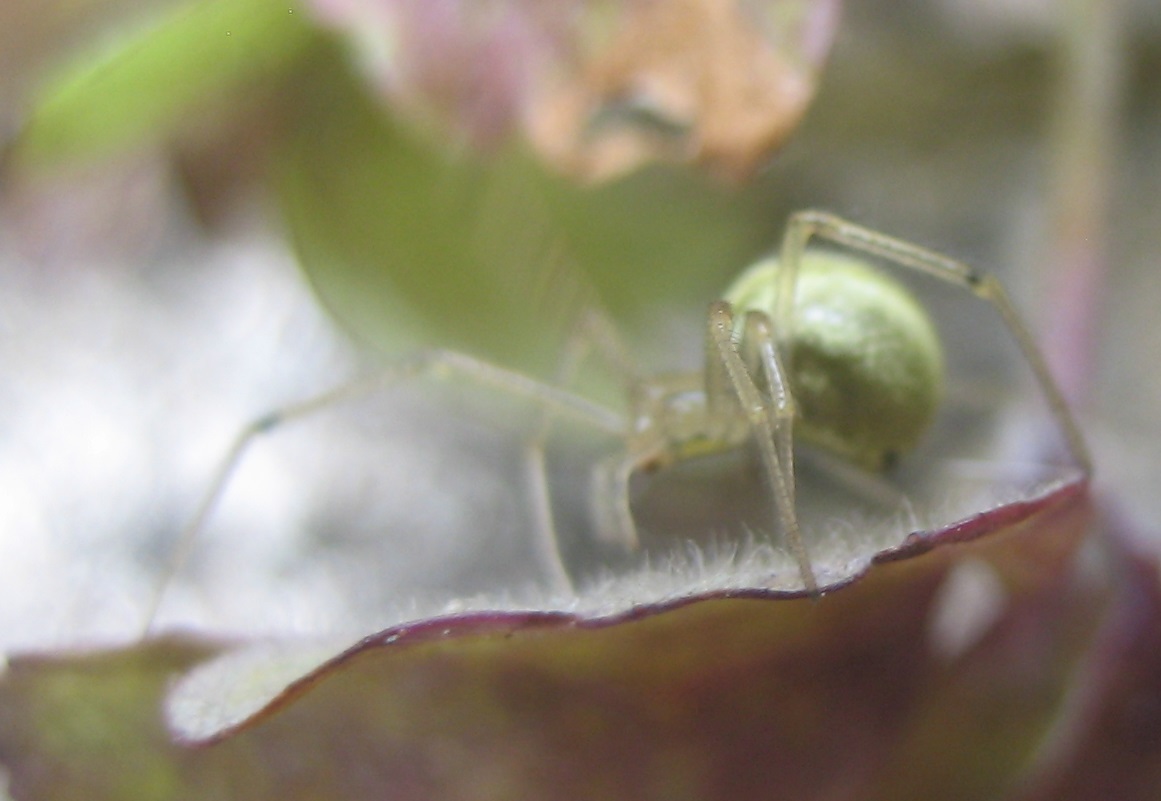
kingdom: Animalia
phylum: Arthropoda
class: Arachnida
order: Araneae
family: Theridiidae
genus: Enoplognatha
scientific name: Enoplognatha ovata
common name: Common candy-striped spider
